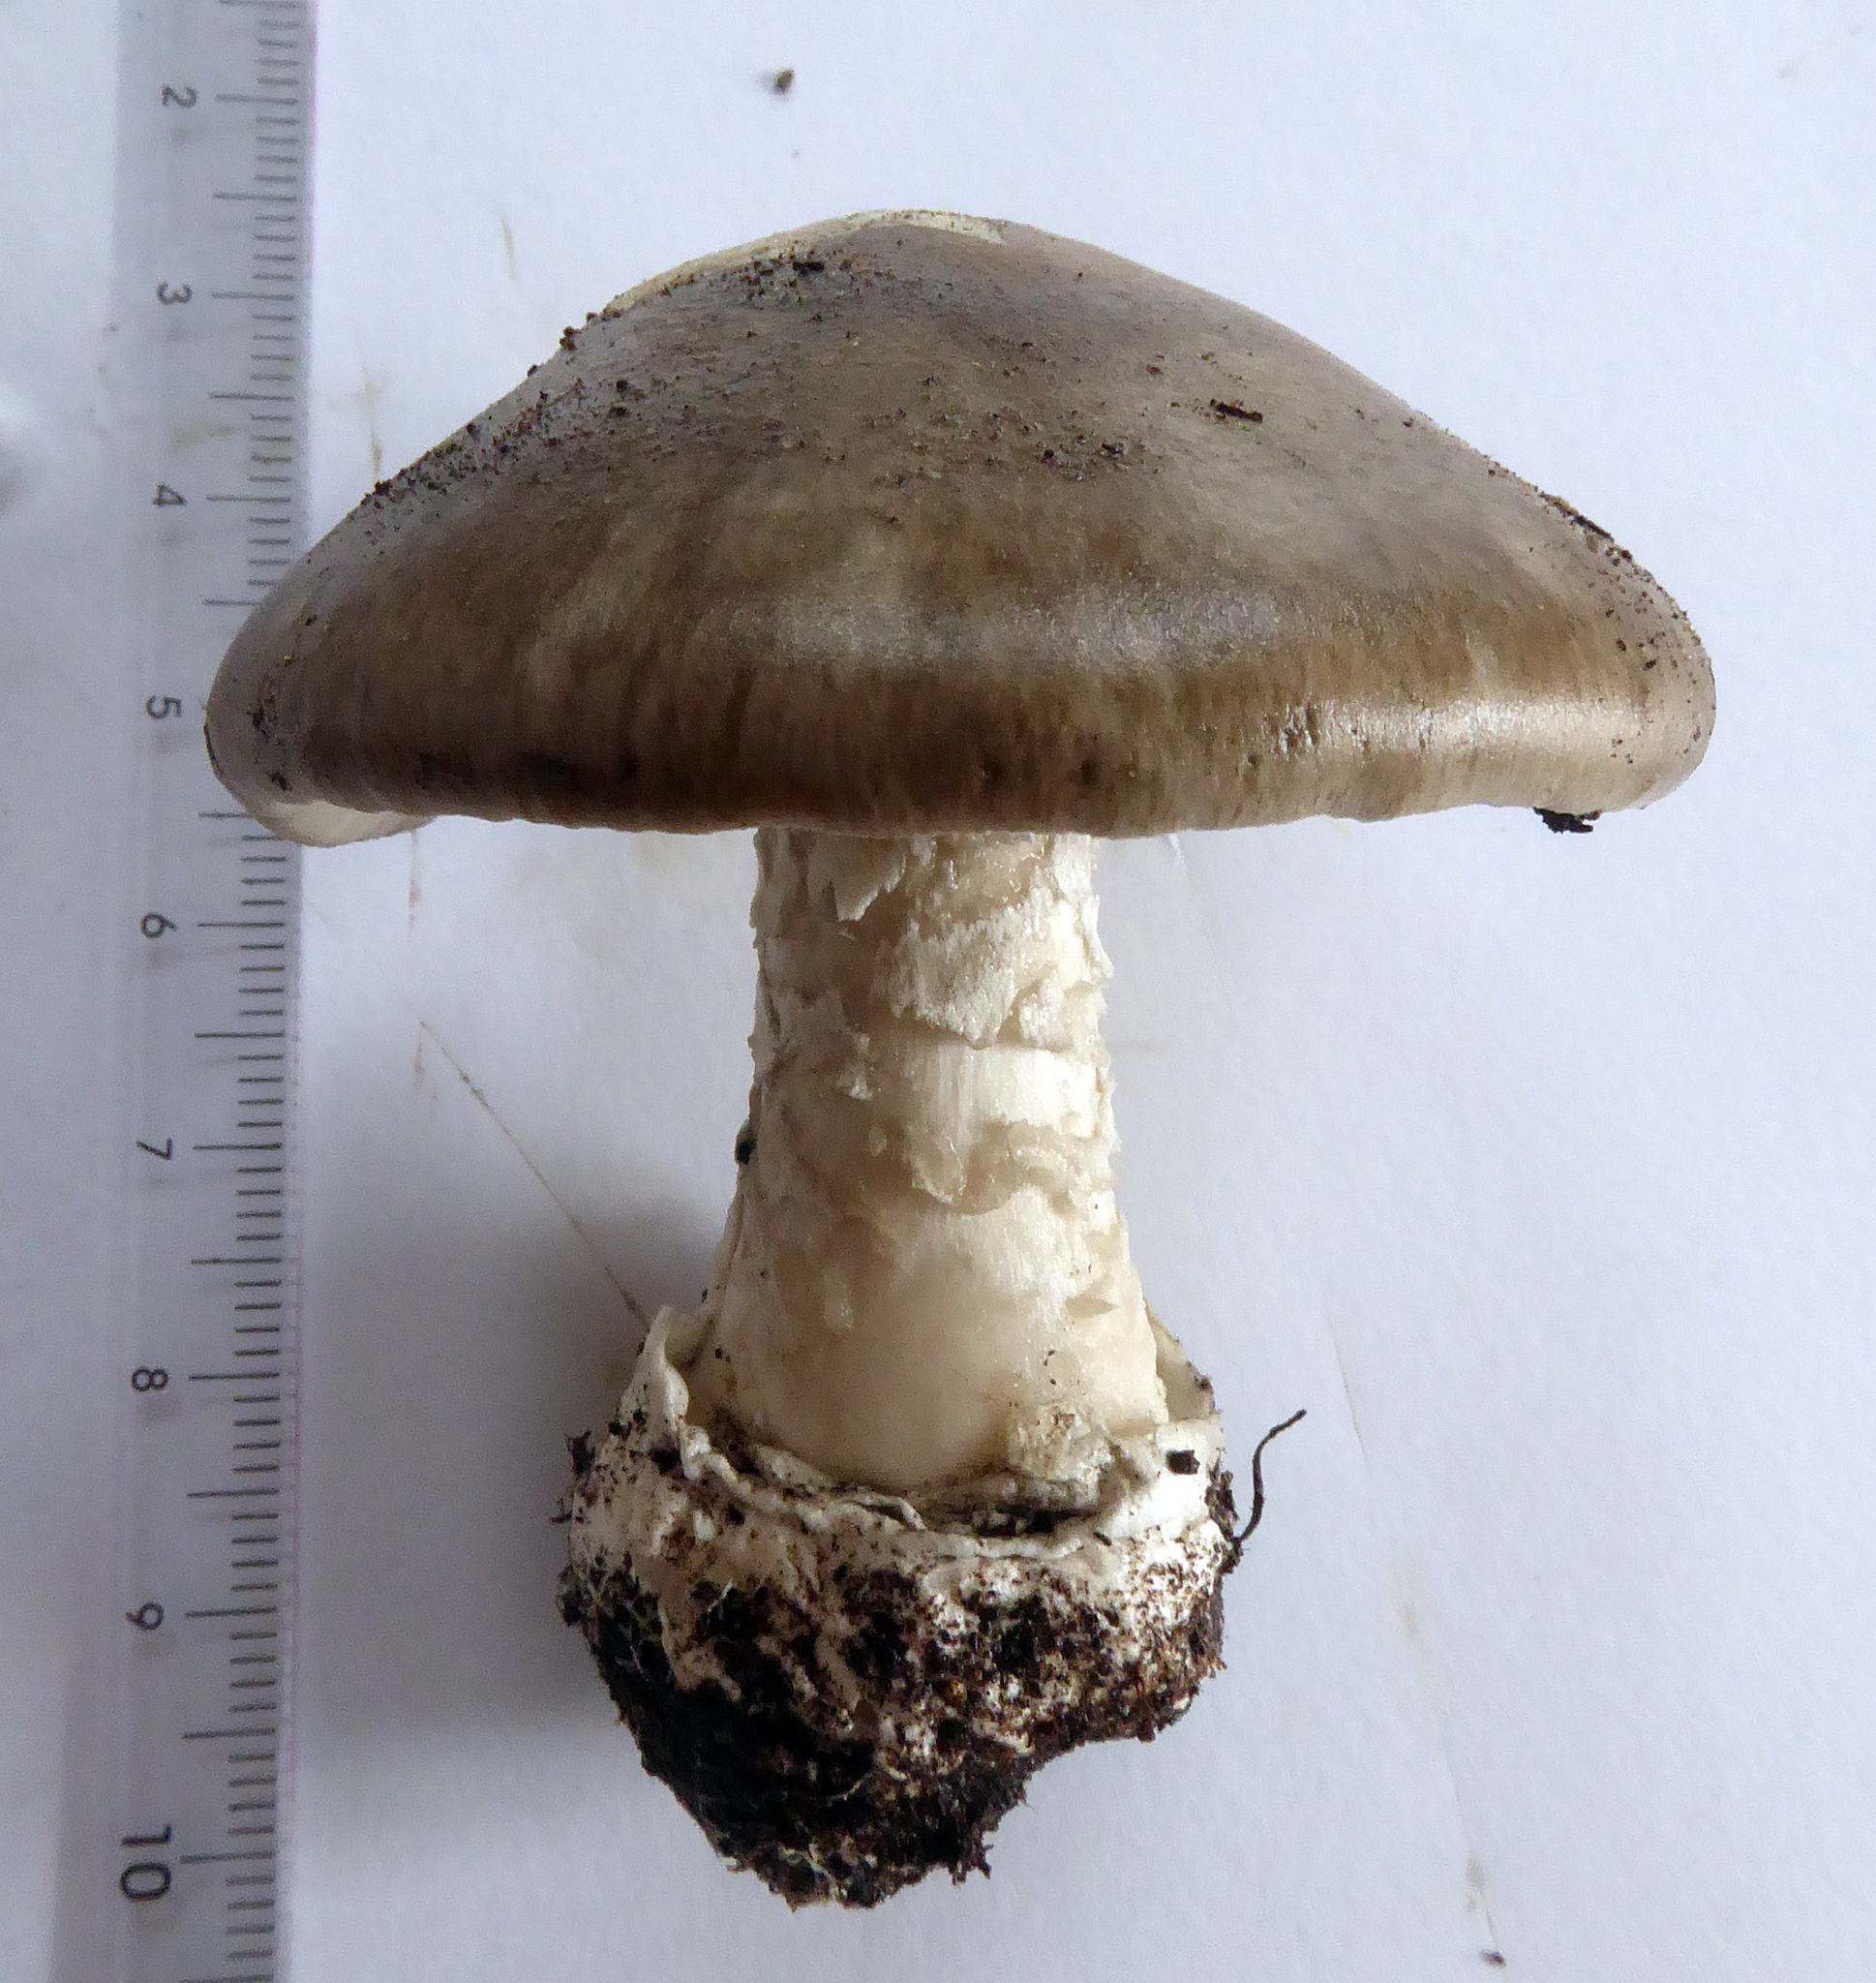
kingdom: Fungi
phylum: Basidiomycota
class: Agaricomycetes
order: Agaricales
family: Amanitaceae
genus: Amanita
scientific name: Amanita marmorata
